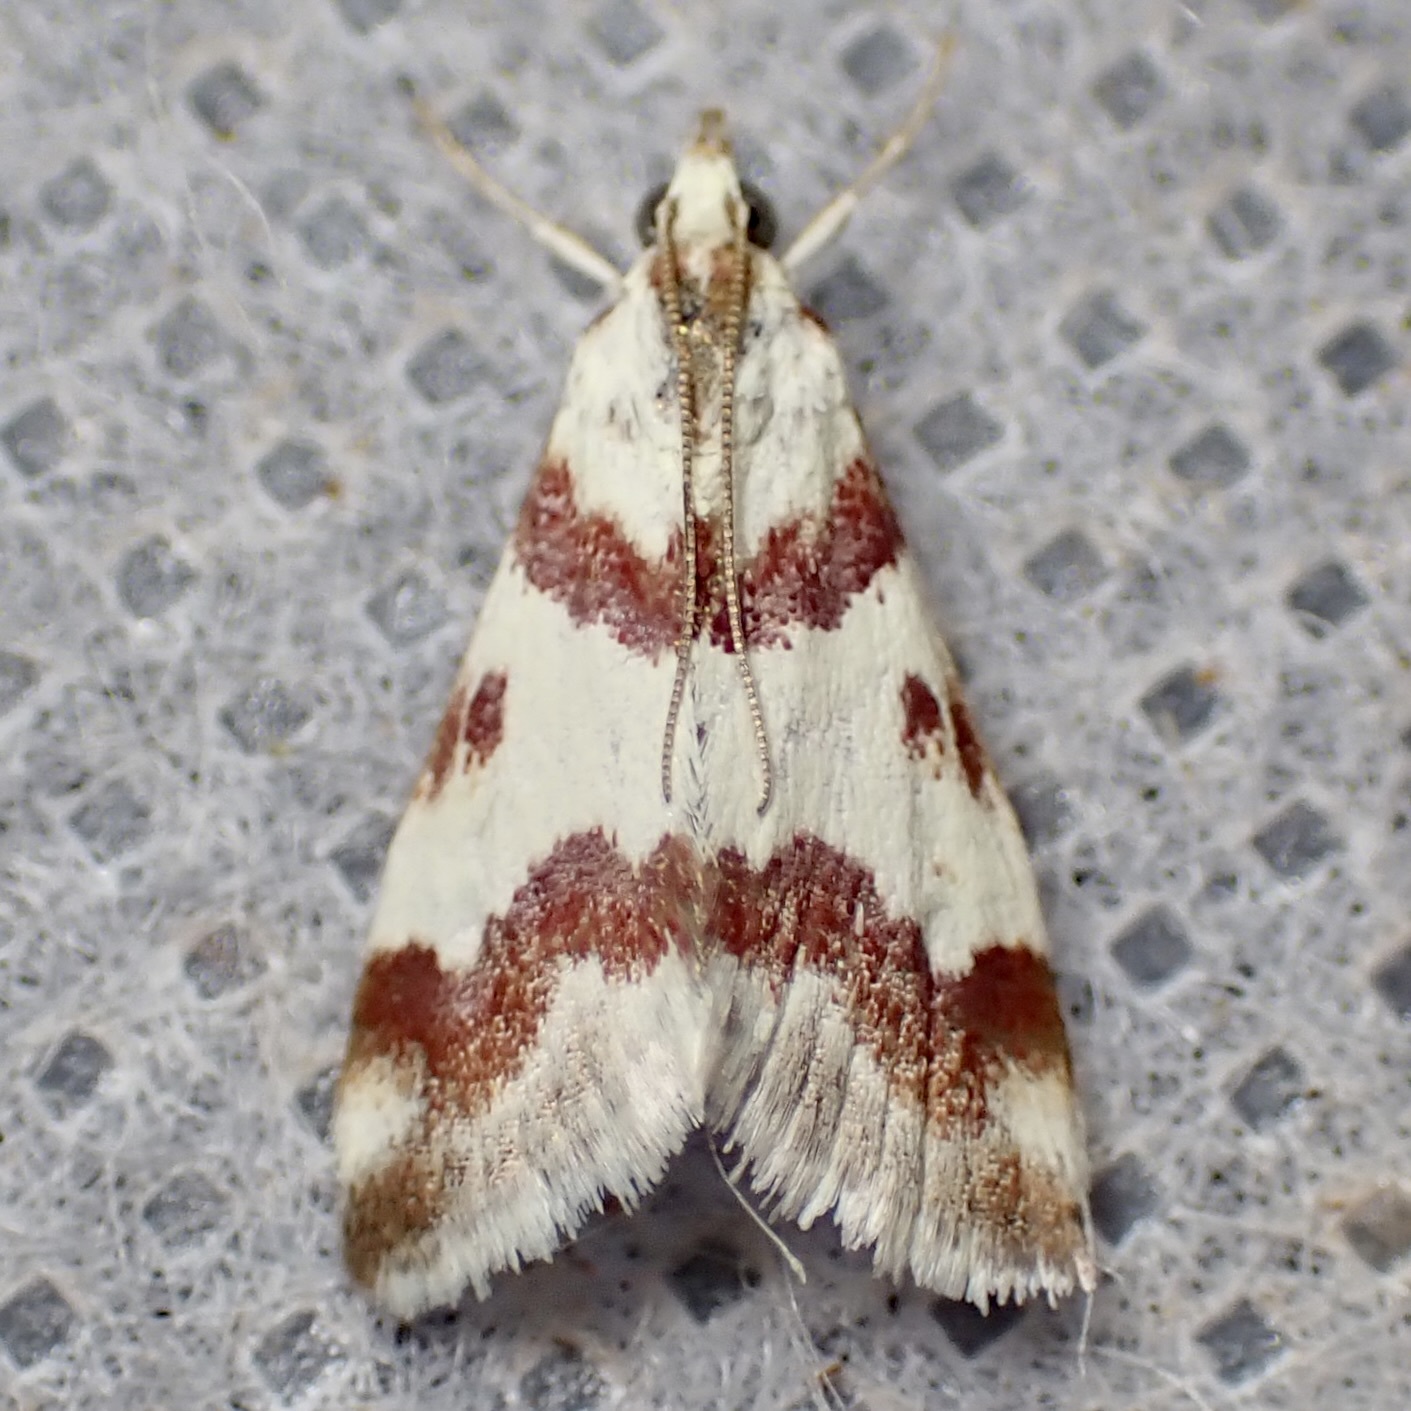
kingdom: Animalia
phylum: Arthropoda
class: Insecta
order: Lepidoptera
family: Crambidae
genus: Noctuelia
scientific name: Noctuelia Mimoschinia rufofascialis
